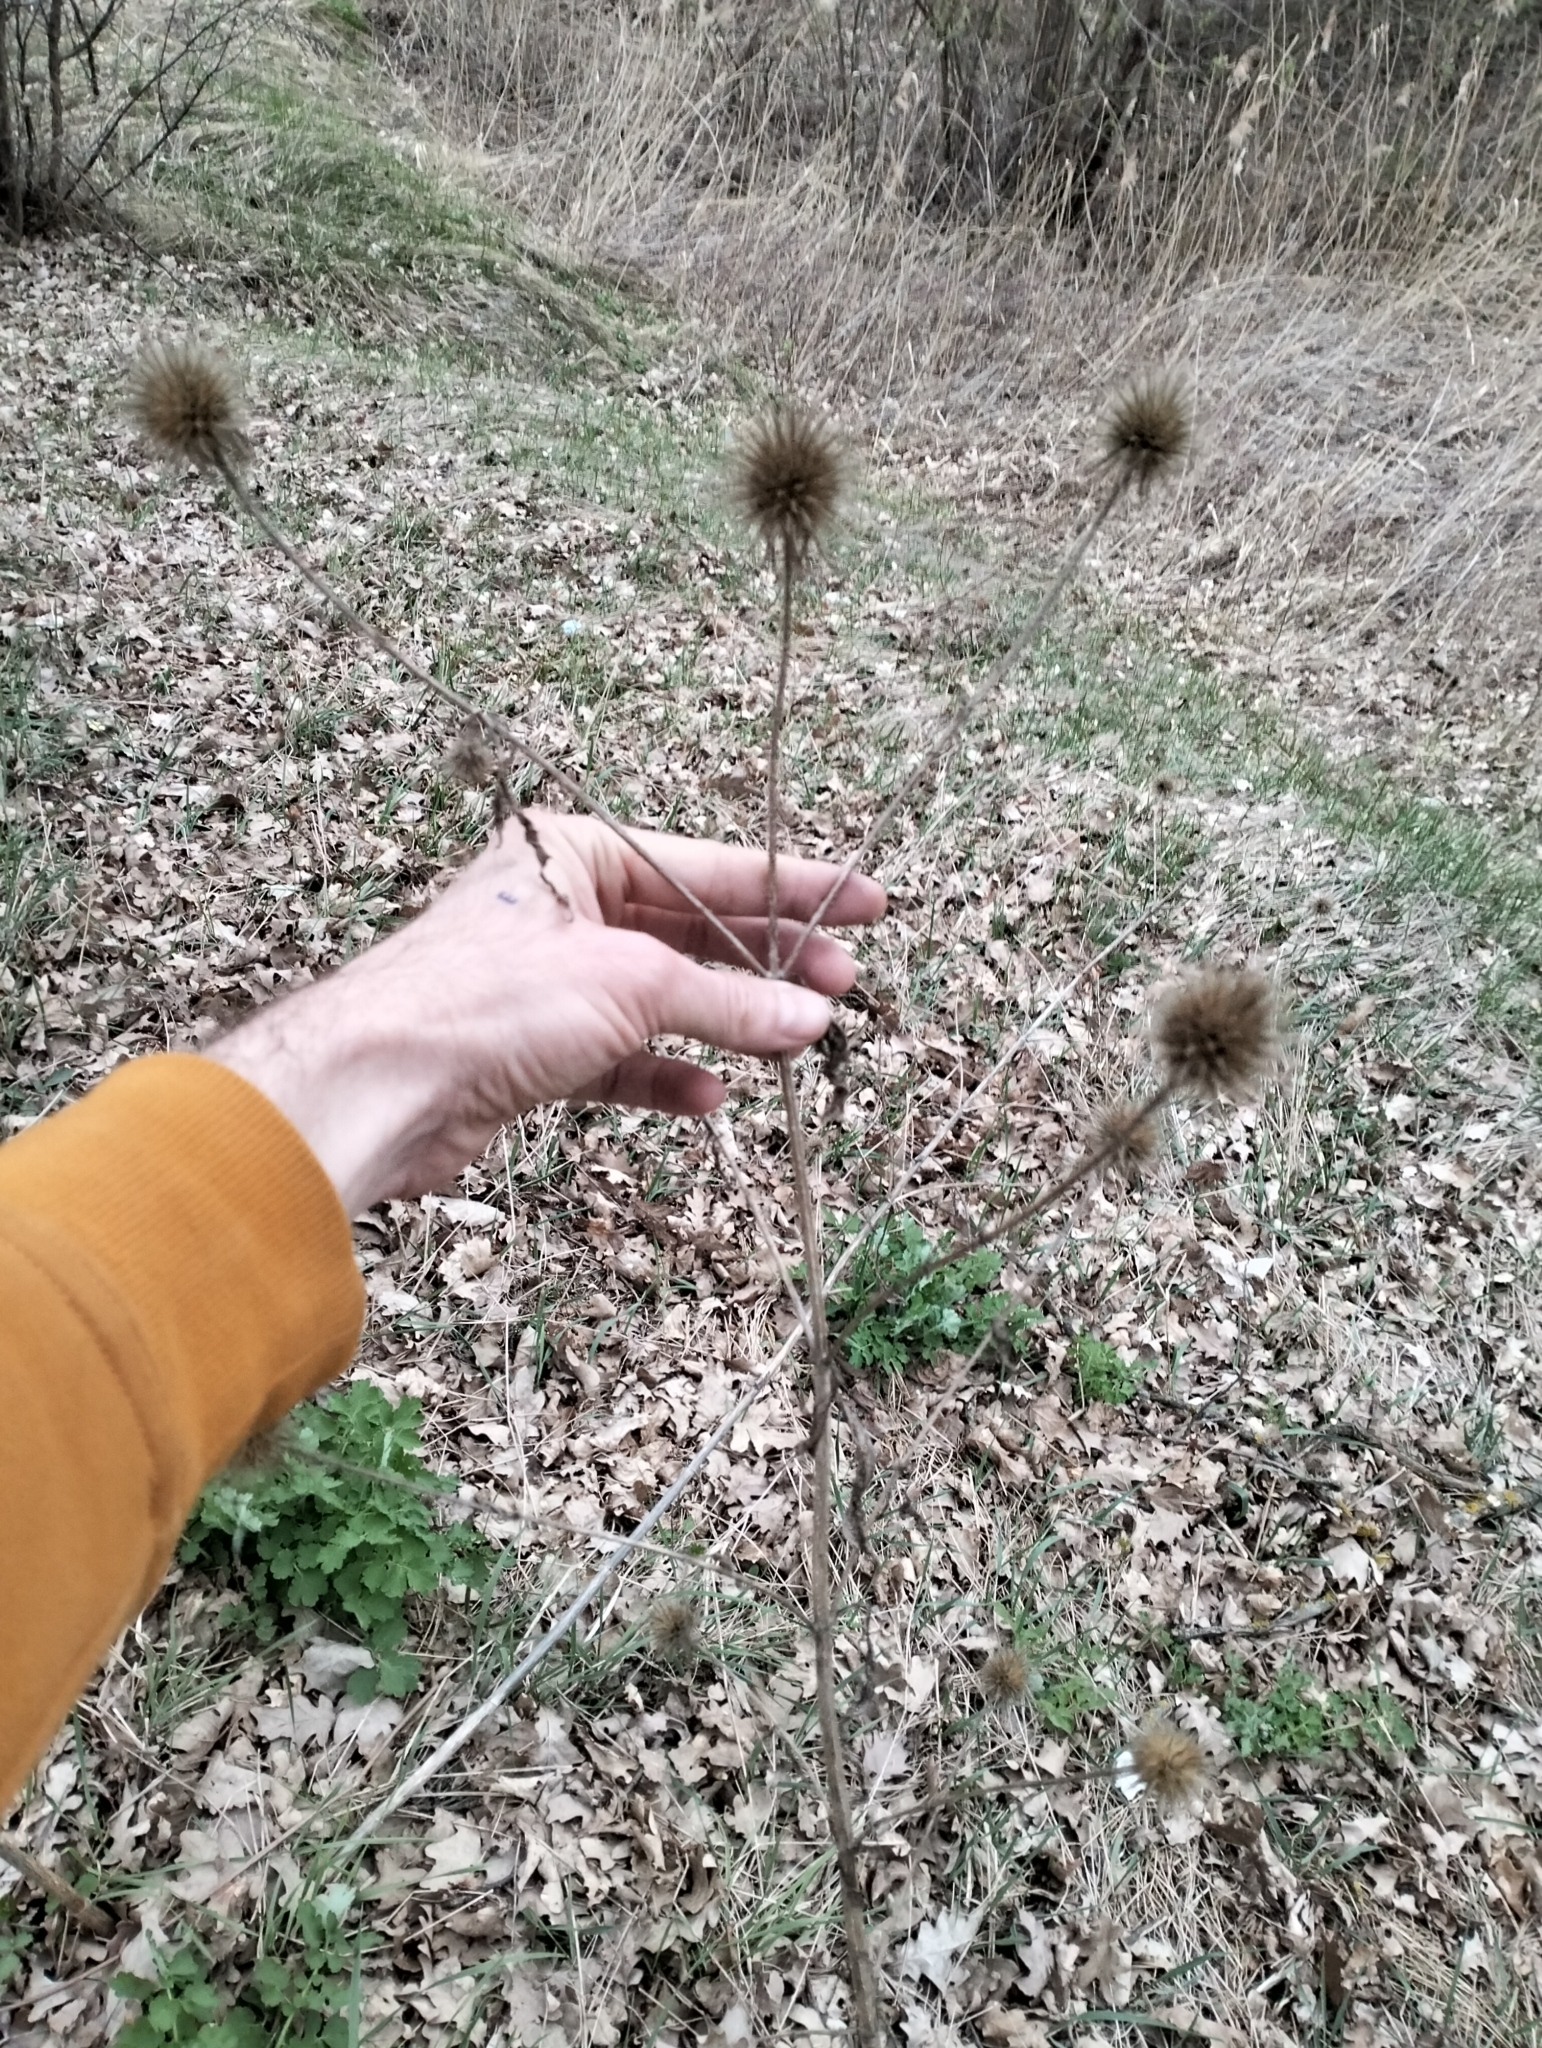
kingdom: Plantae
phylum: Tracheophyta
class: Magnoliopsida
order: Dipsacales
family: Caprifoliaceae
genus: Dipsacus
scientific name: Dipsacus strigosus
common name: Yellow-flowered teasel
